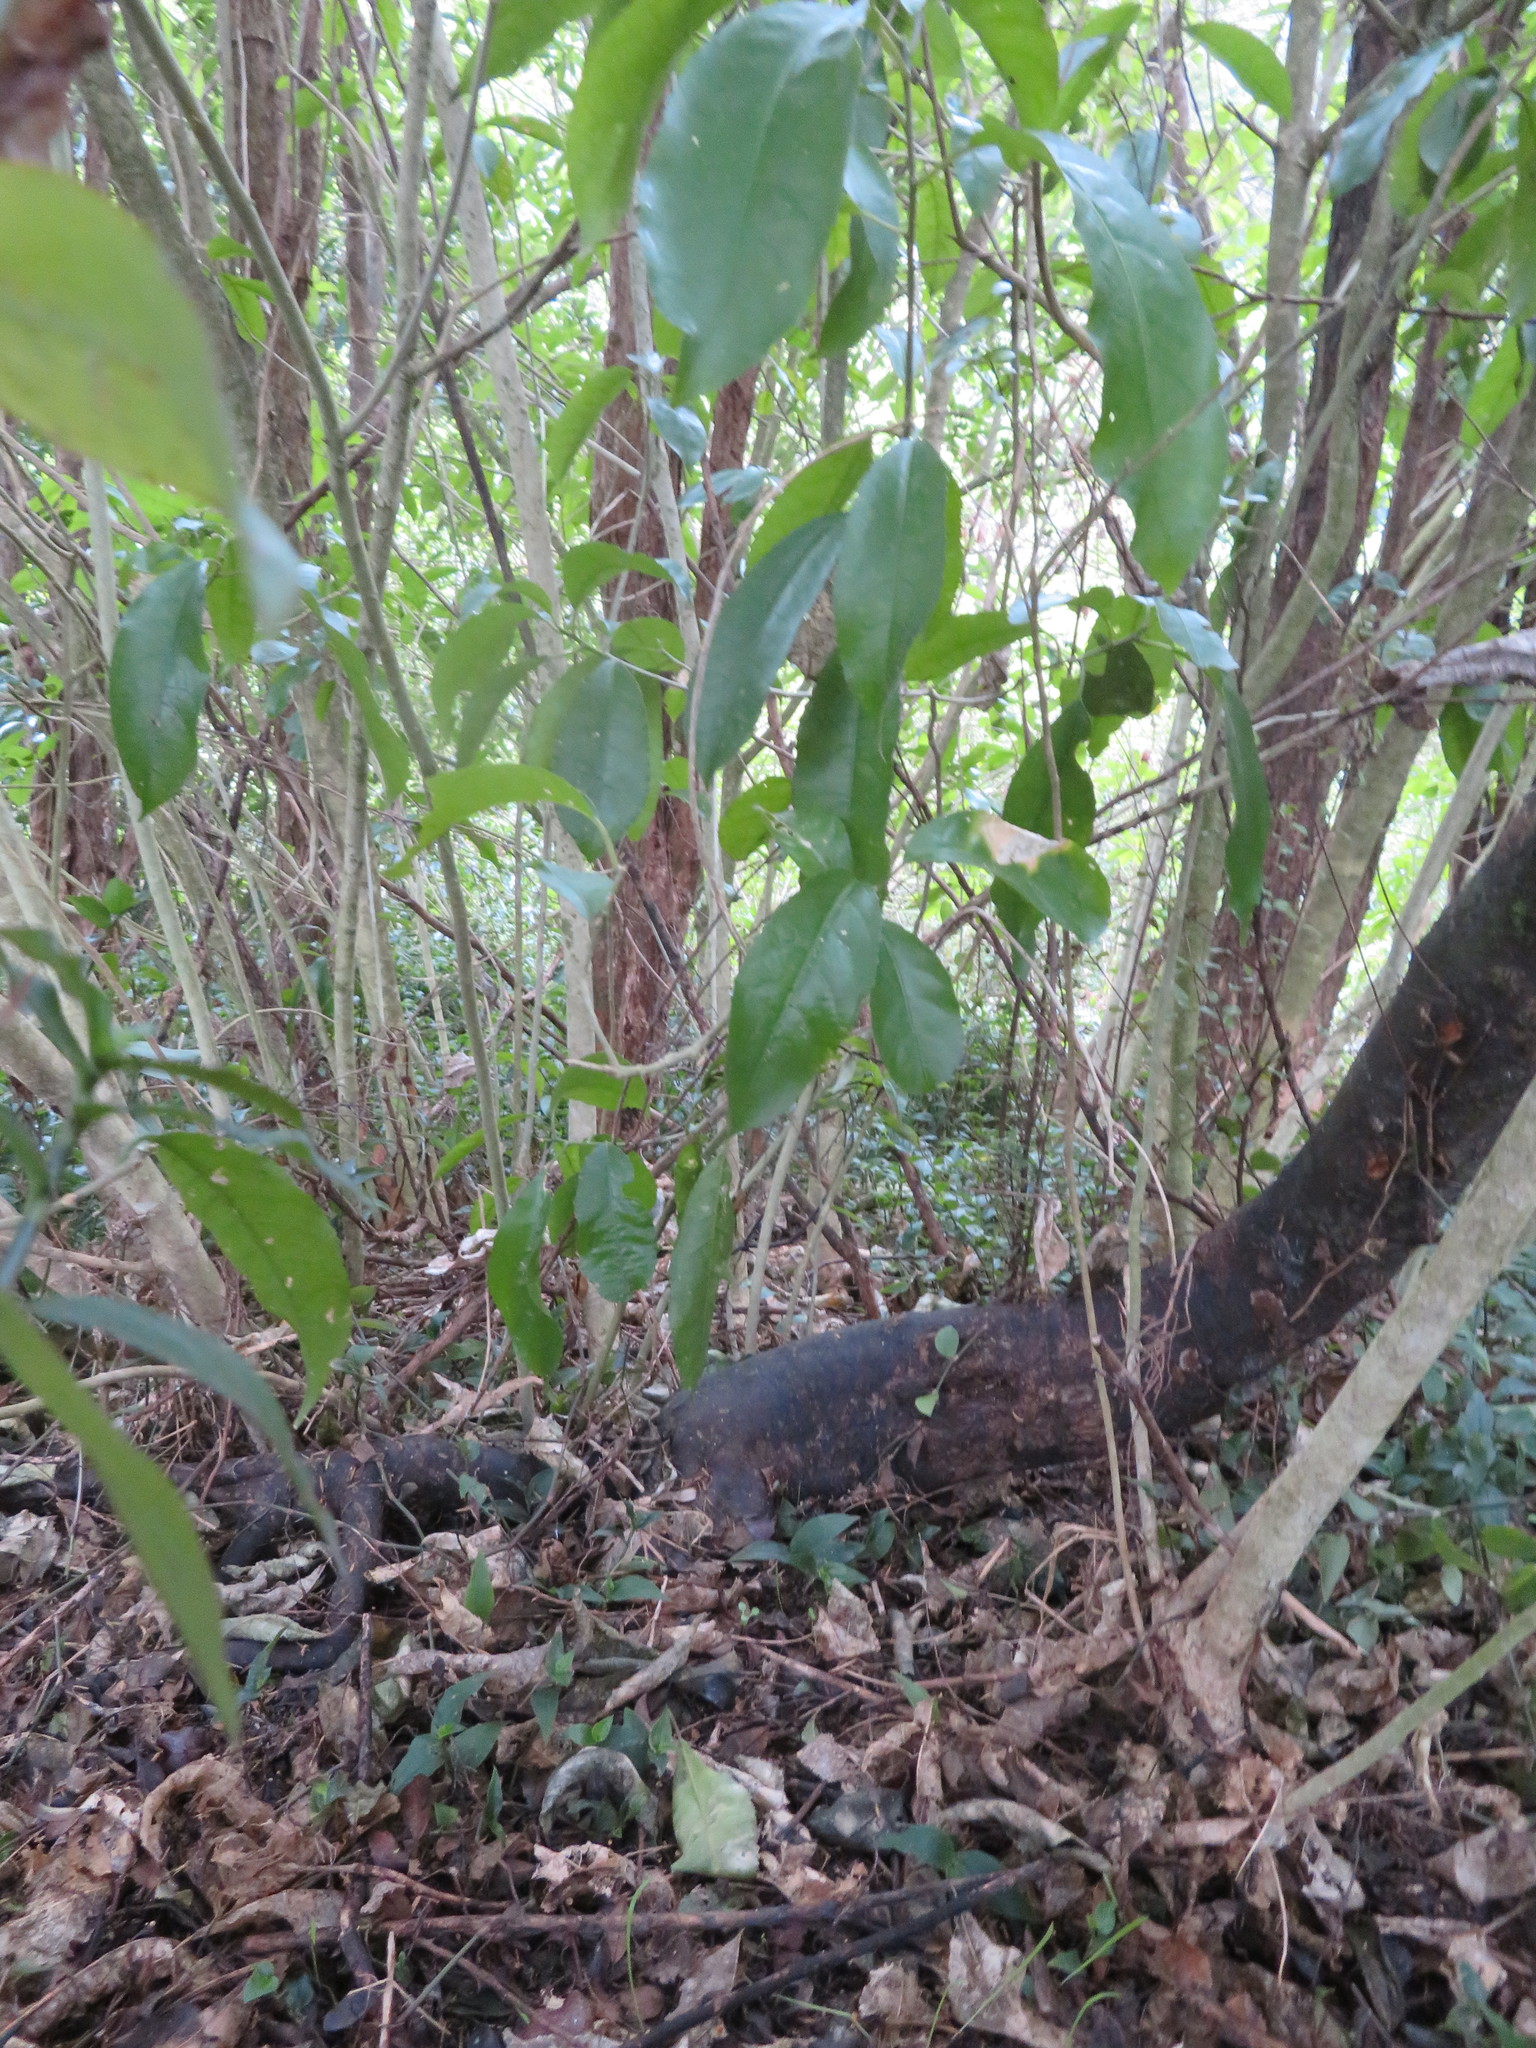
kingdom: Plantae
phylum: Tracheophyta
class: Magnoliopsida
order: Malpighiales
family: Violaceae
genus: Melicytus
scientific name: Melicytus ramiflorus
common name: Mahoe
